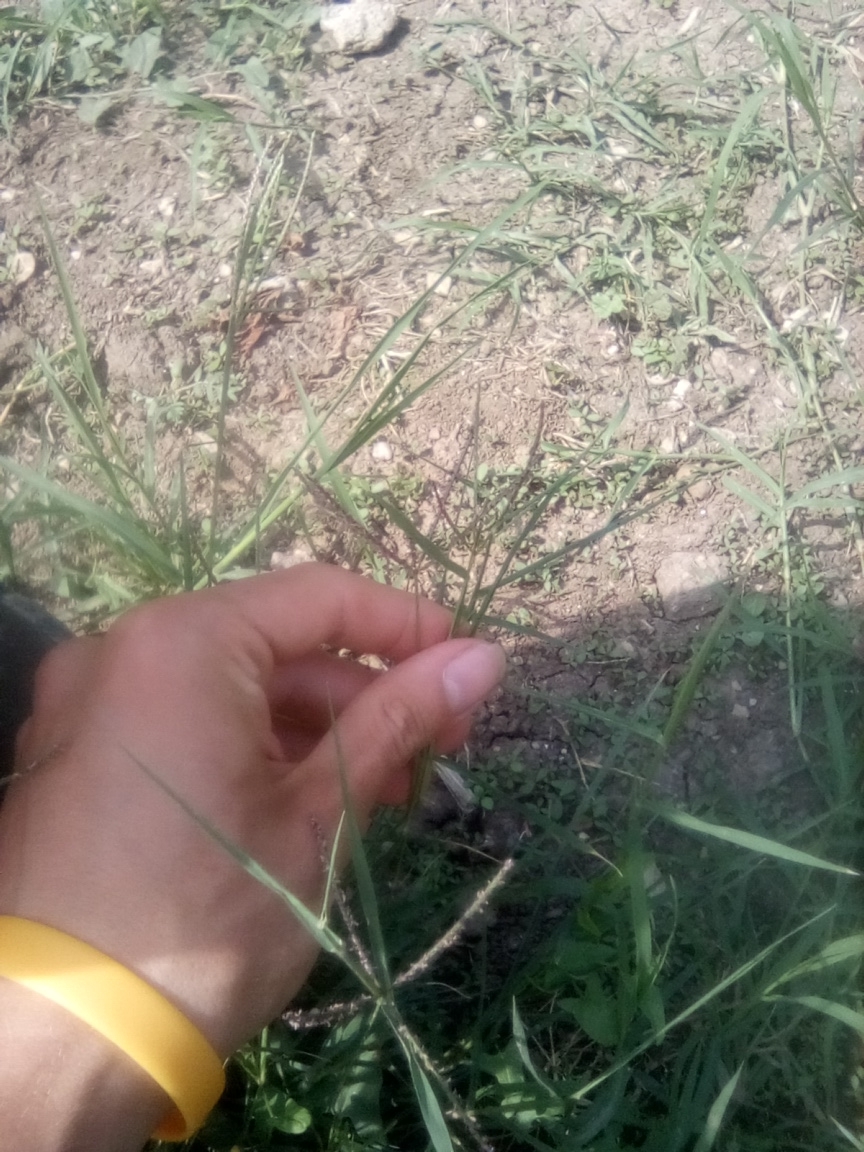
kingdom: Plantae
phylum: Tracheophyta
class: Liliopsida
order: Poales
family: Poaceae
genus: Digitaria
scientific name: Digitaria sanguinalis
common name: Hairy crabgrass
